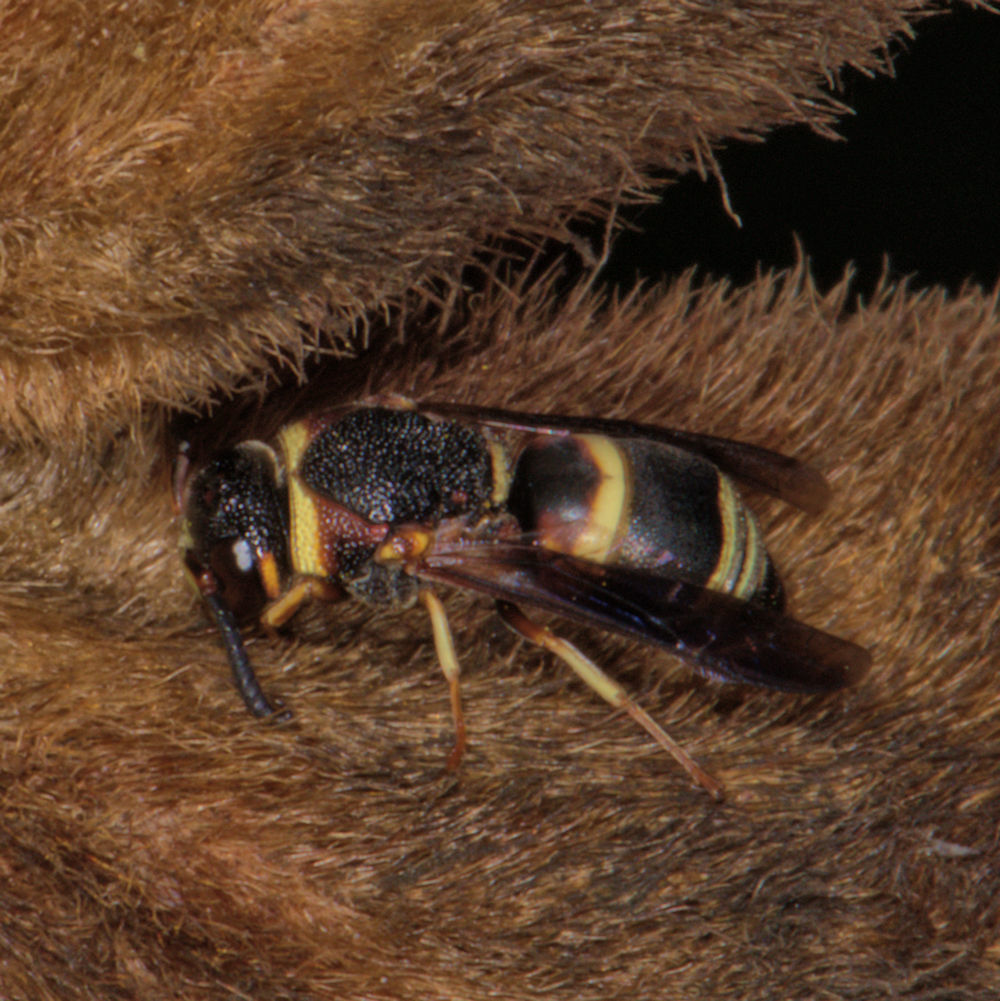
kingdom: Animalia
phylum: Arthropoda
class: Insecta
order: Hymenoptera
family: Eumenidae
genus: Euodynerus
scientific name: Euodynerus hidalgo
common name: Wasp
